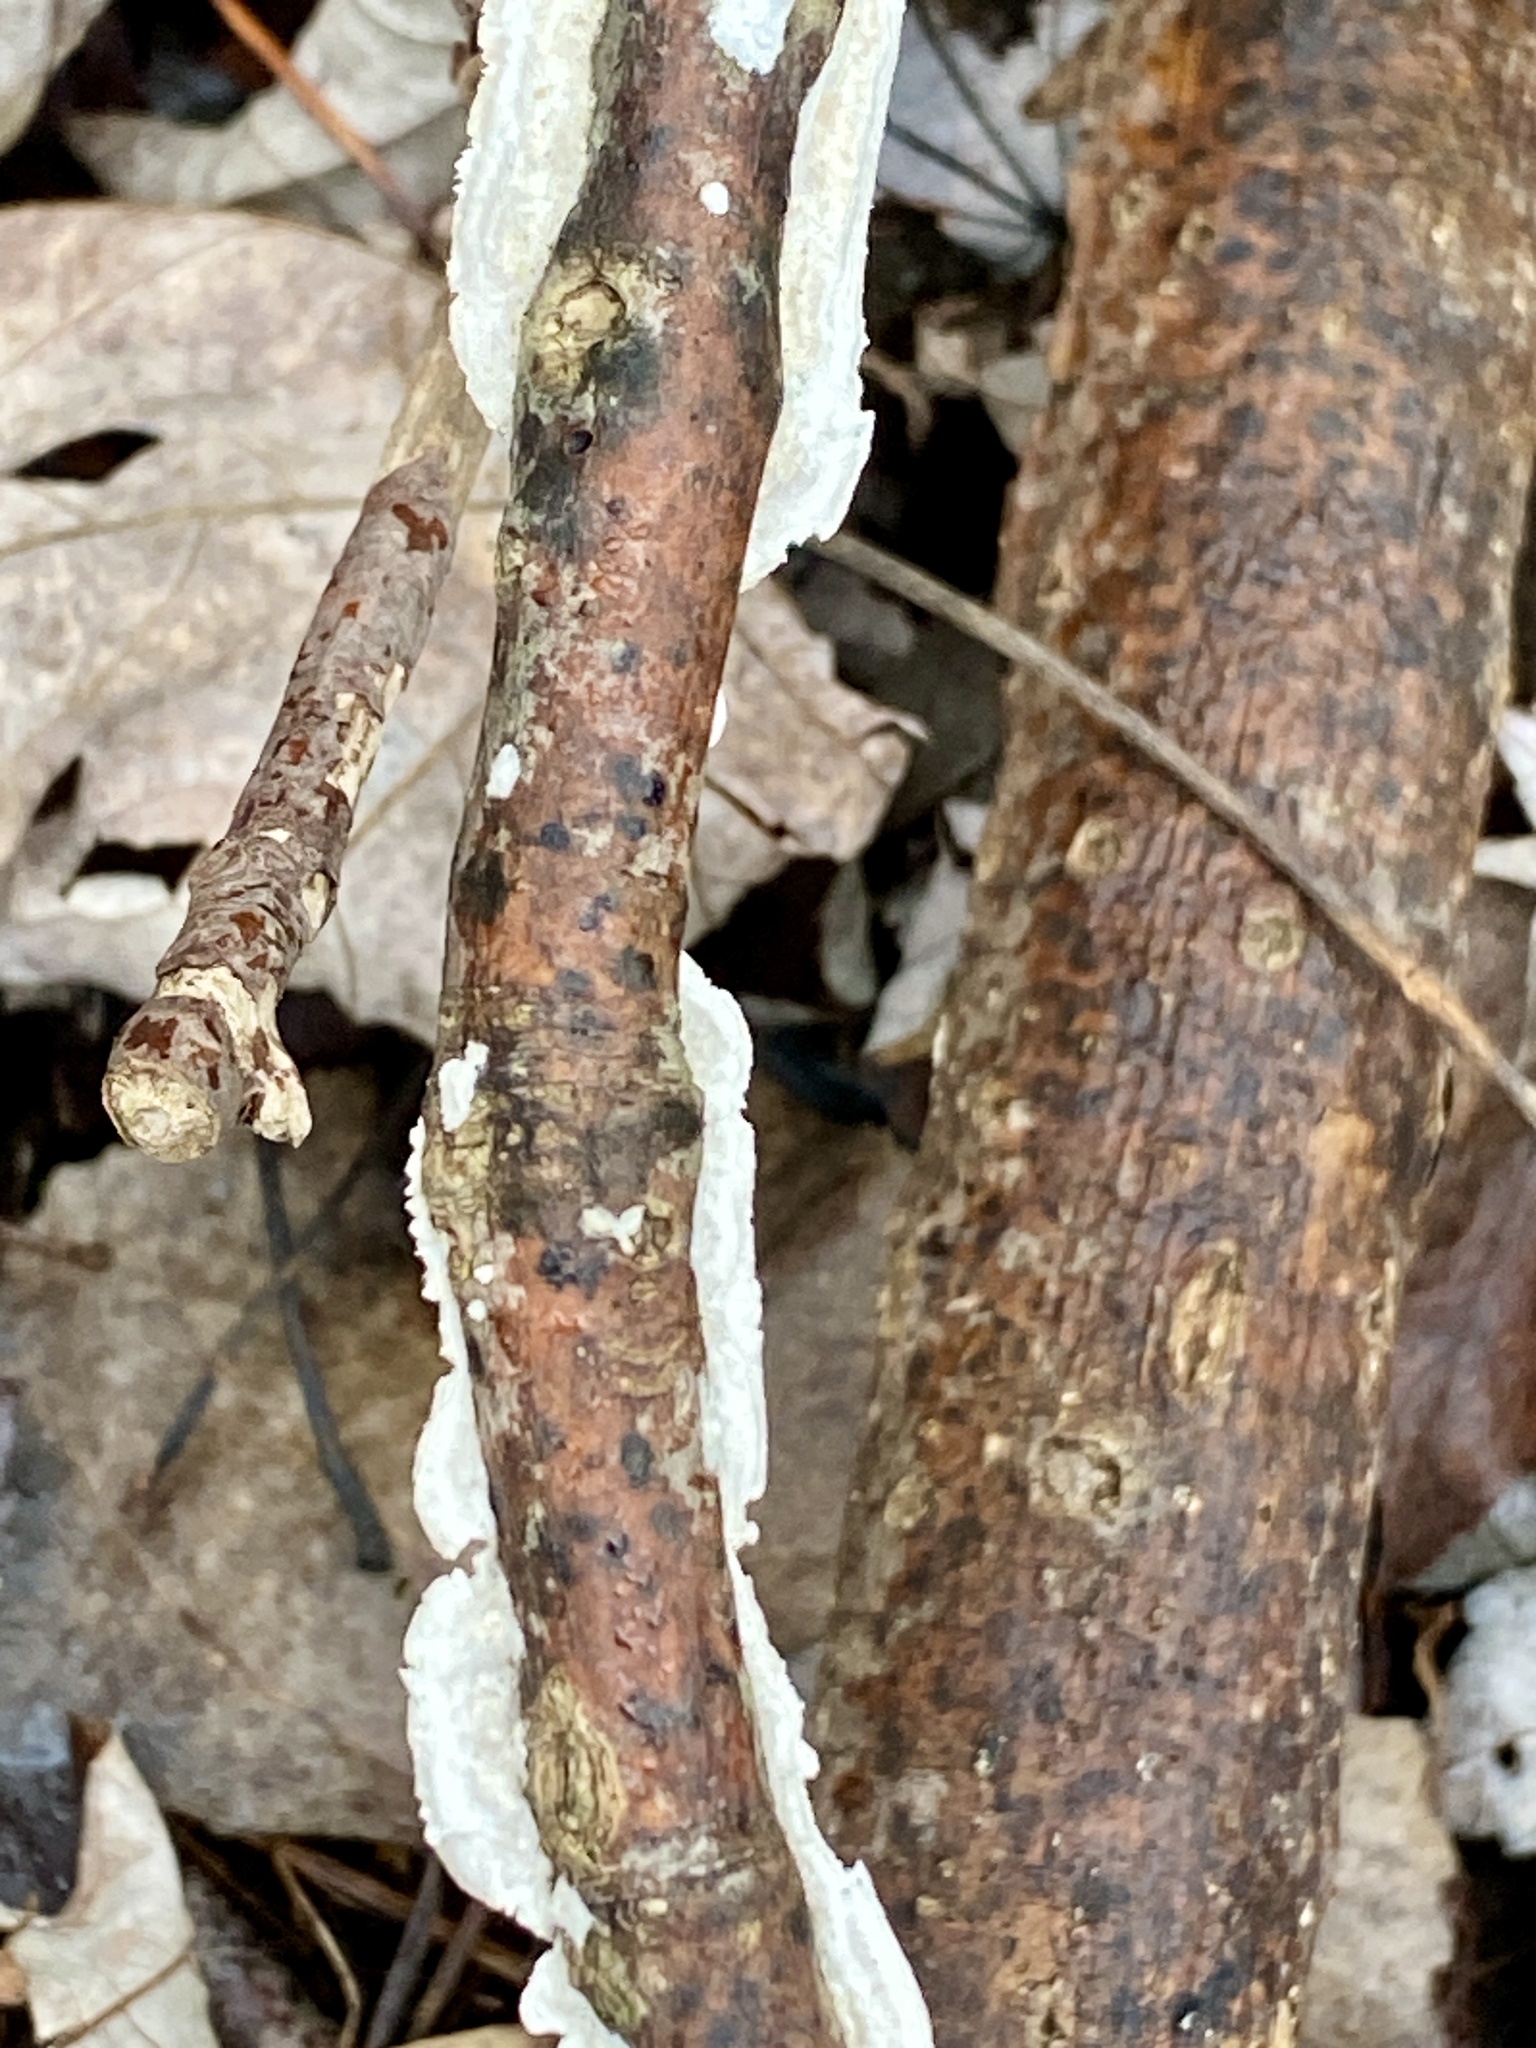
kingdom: Fungi
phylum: Basidiomycota
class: Agaricomycetes
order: Polyporales
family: Irpicaceae
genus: Irpex
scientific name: Irpex lacteus
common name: Milk-white toothed polypore
